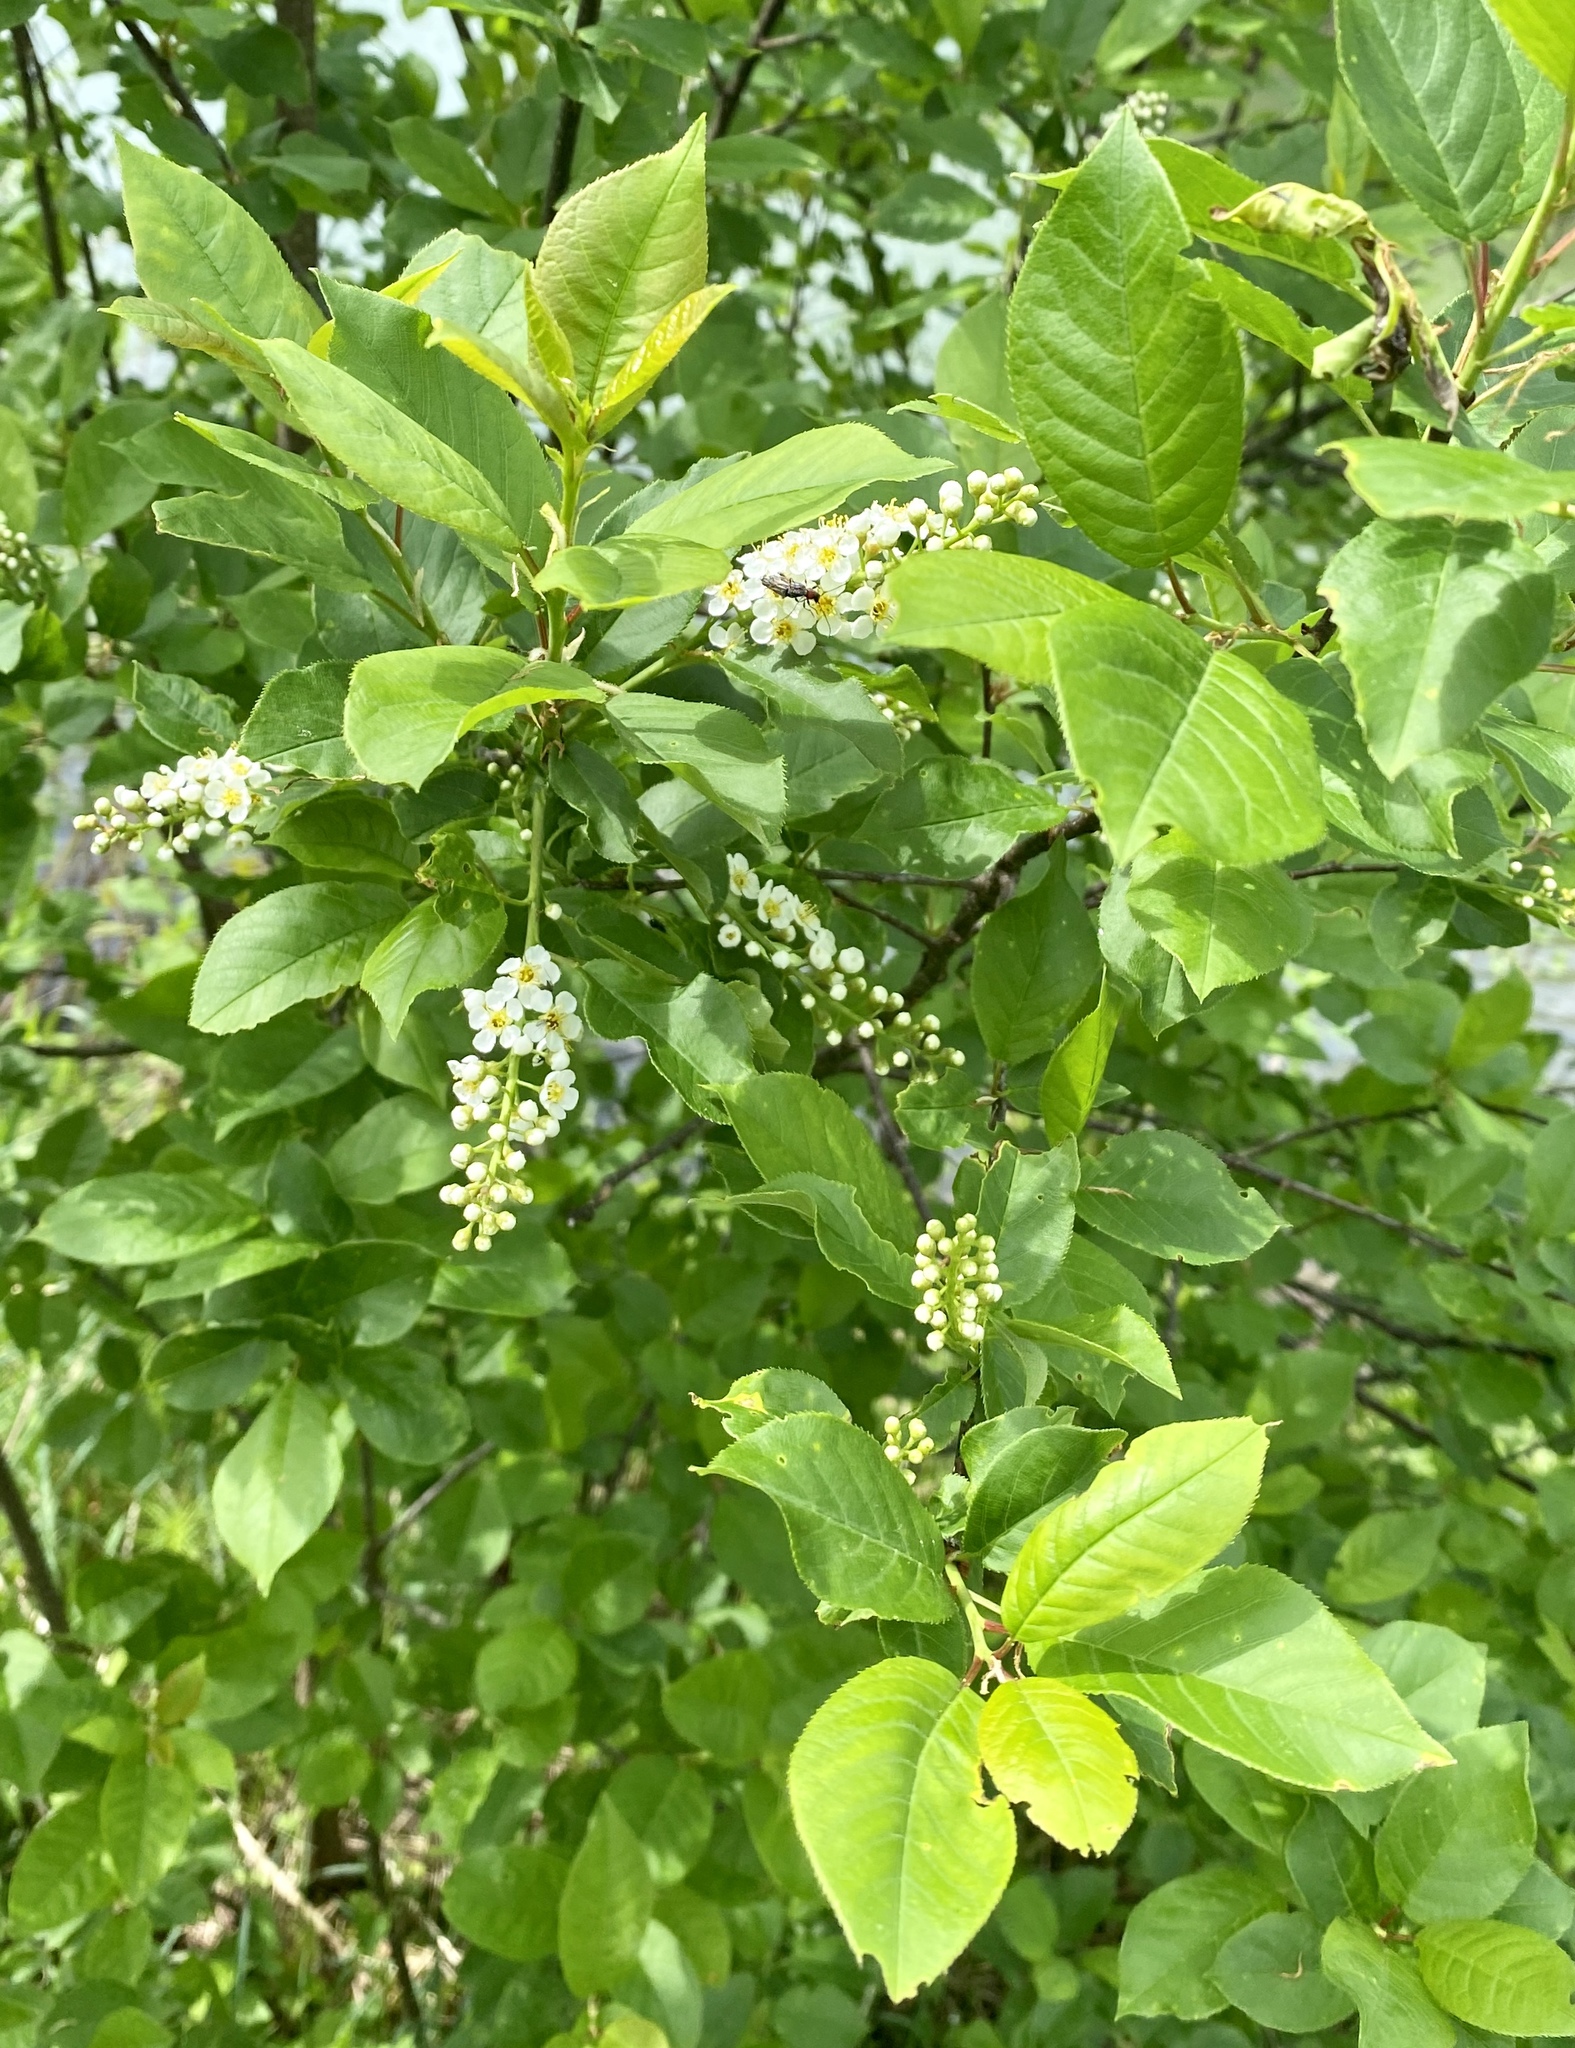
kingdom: Plantae
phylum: Tracheophyta
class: Magnoliopsida
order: Rosales
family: Rosaceae
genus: Prunus
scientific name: Prunus virginiana
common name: Chokecherry
